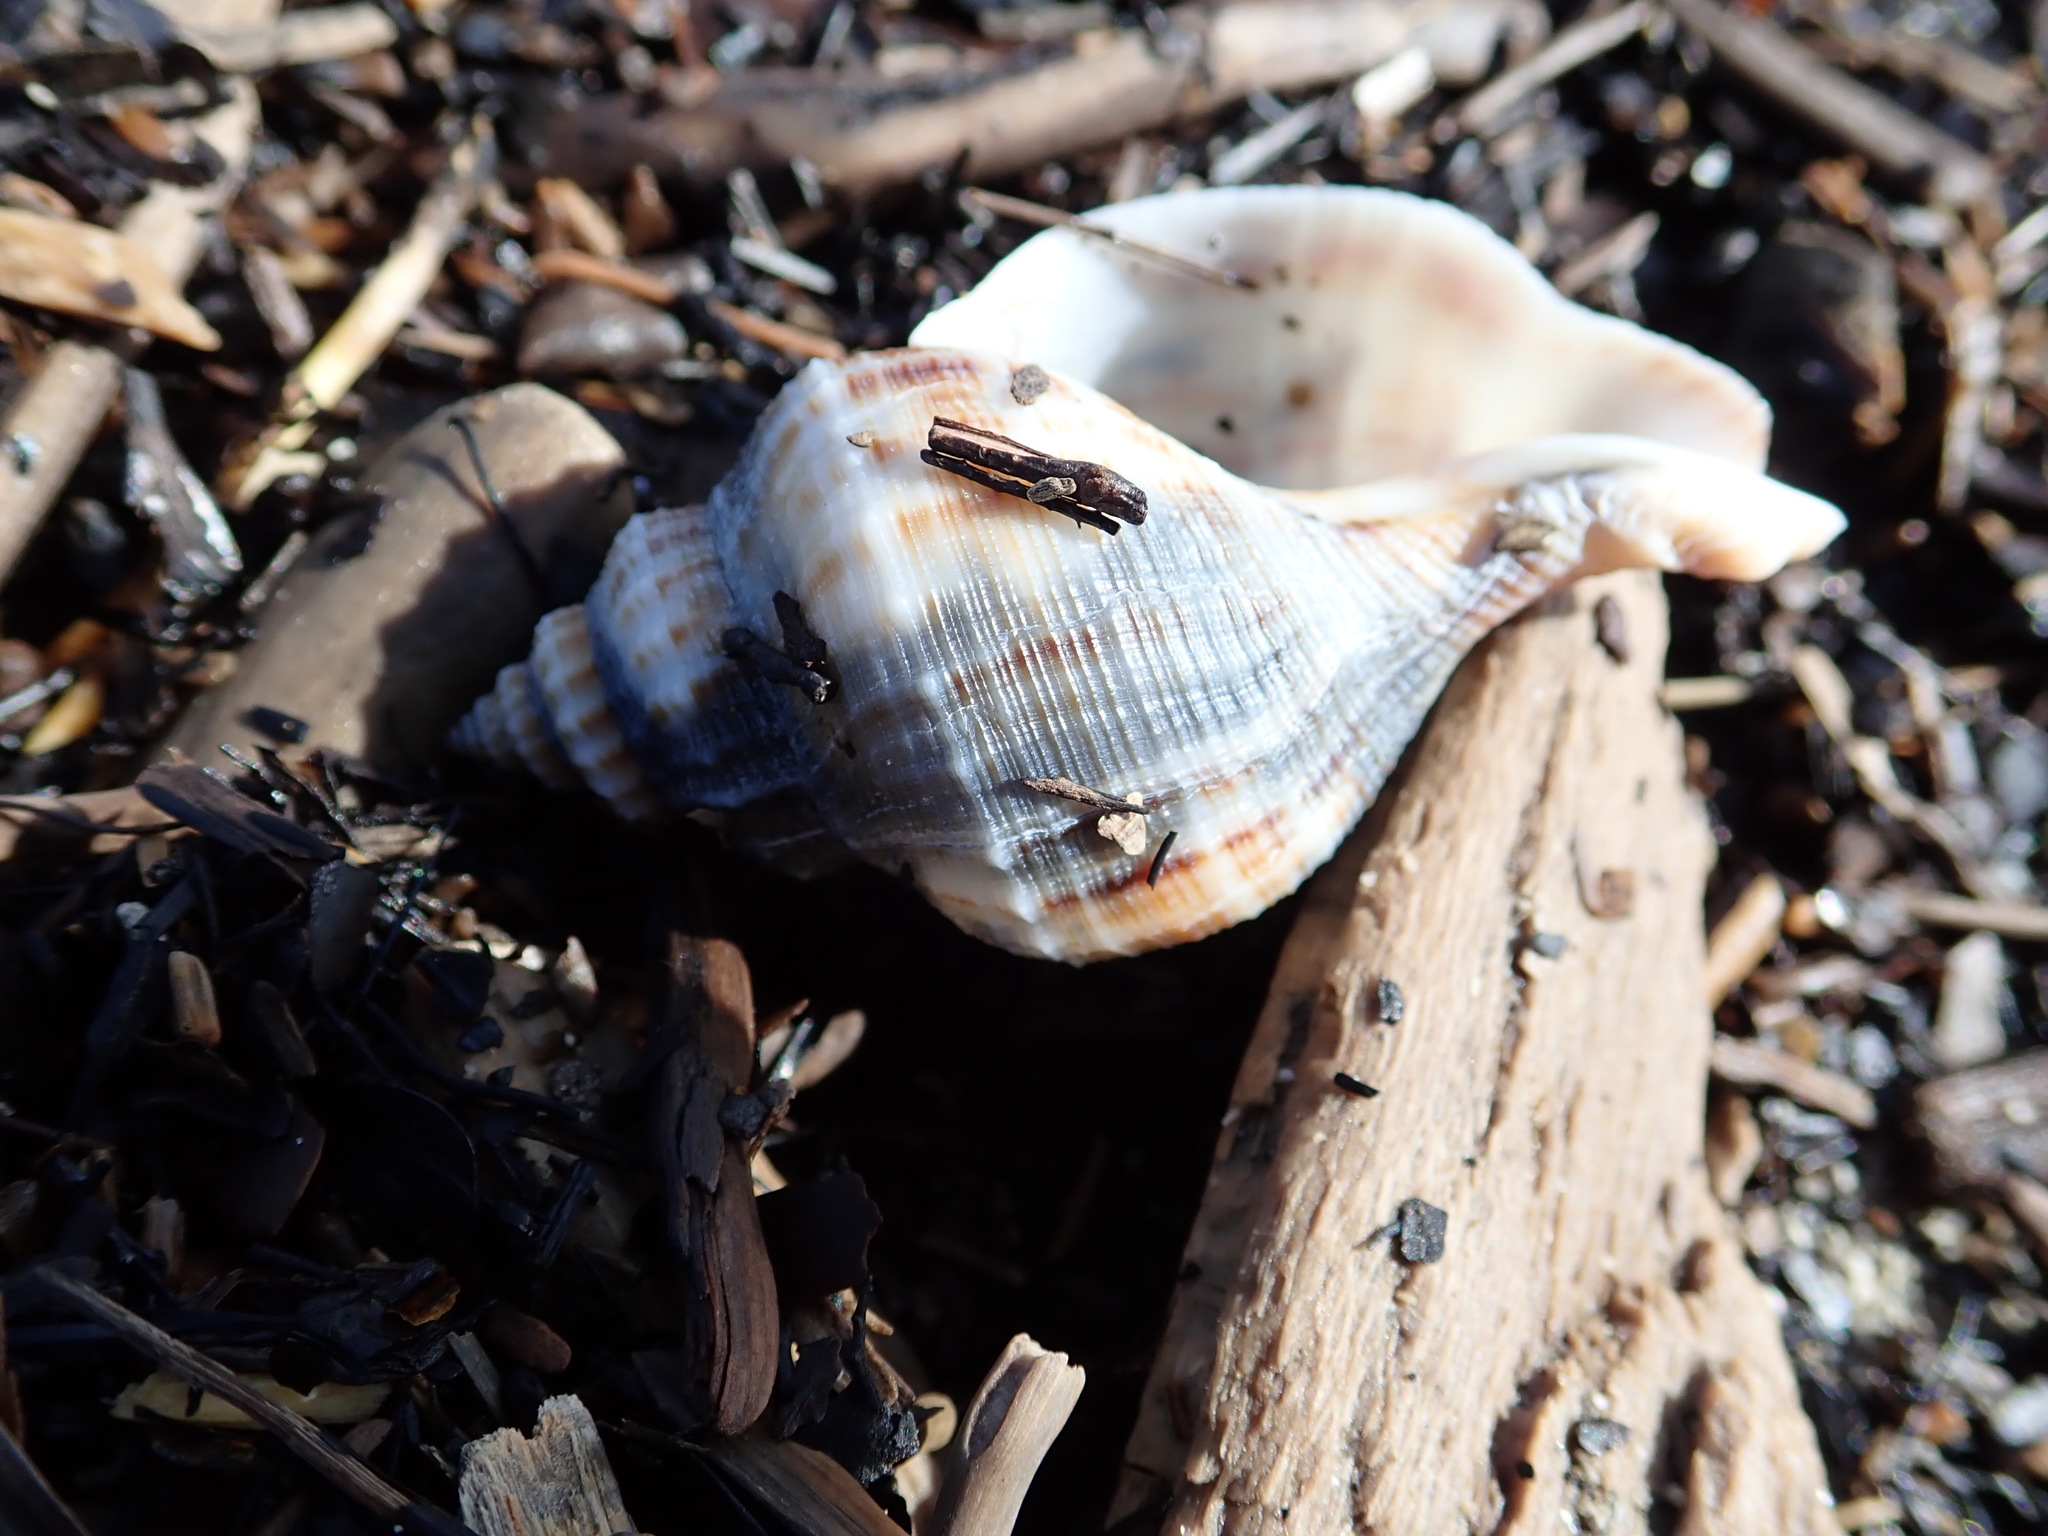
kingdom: Animalia
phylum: Mollusca
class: Gastropoda
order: Neogastropoda
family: Prosiphonidae
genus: Austrofusus
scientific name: Austrofusus glans
